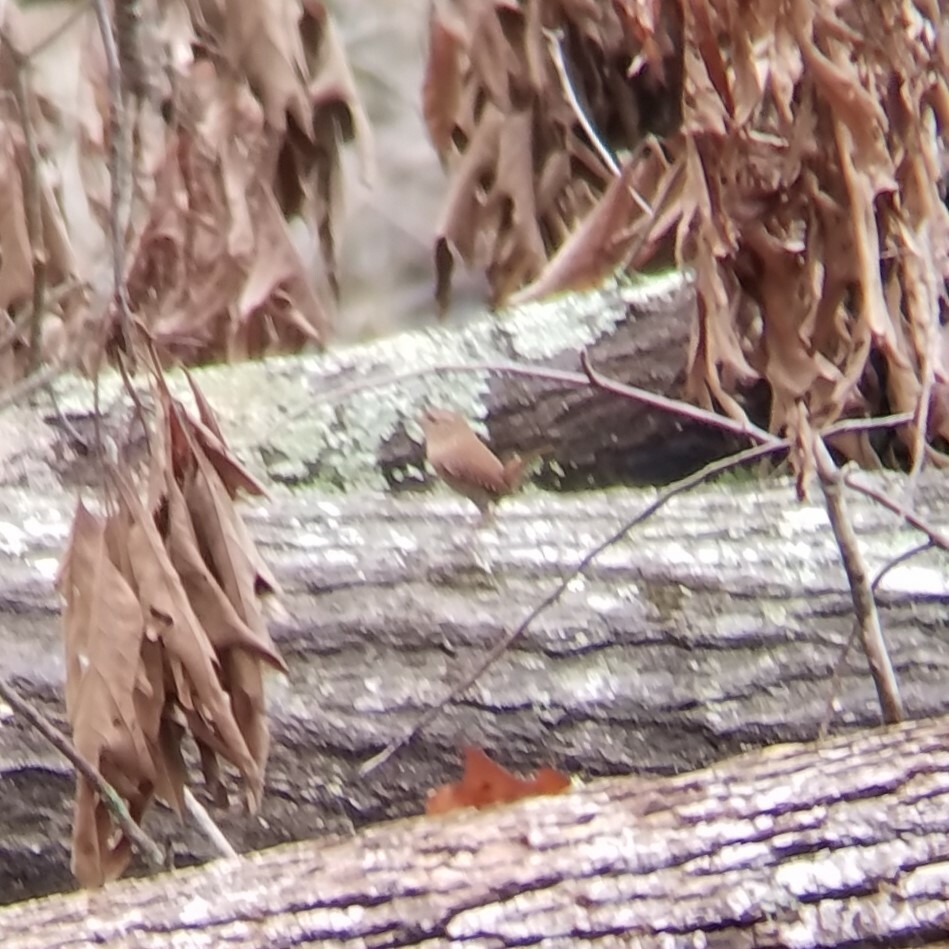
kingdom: Animalia
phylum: Chordata
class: Aves
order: Passeriformes
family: Troglodytidae
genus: Troglodytes
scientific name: Troglodytes hiemalis
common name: Winter wren
